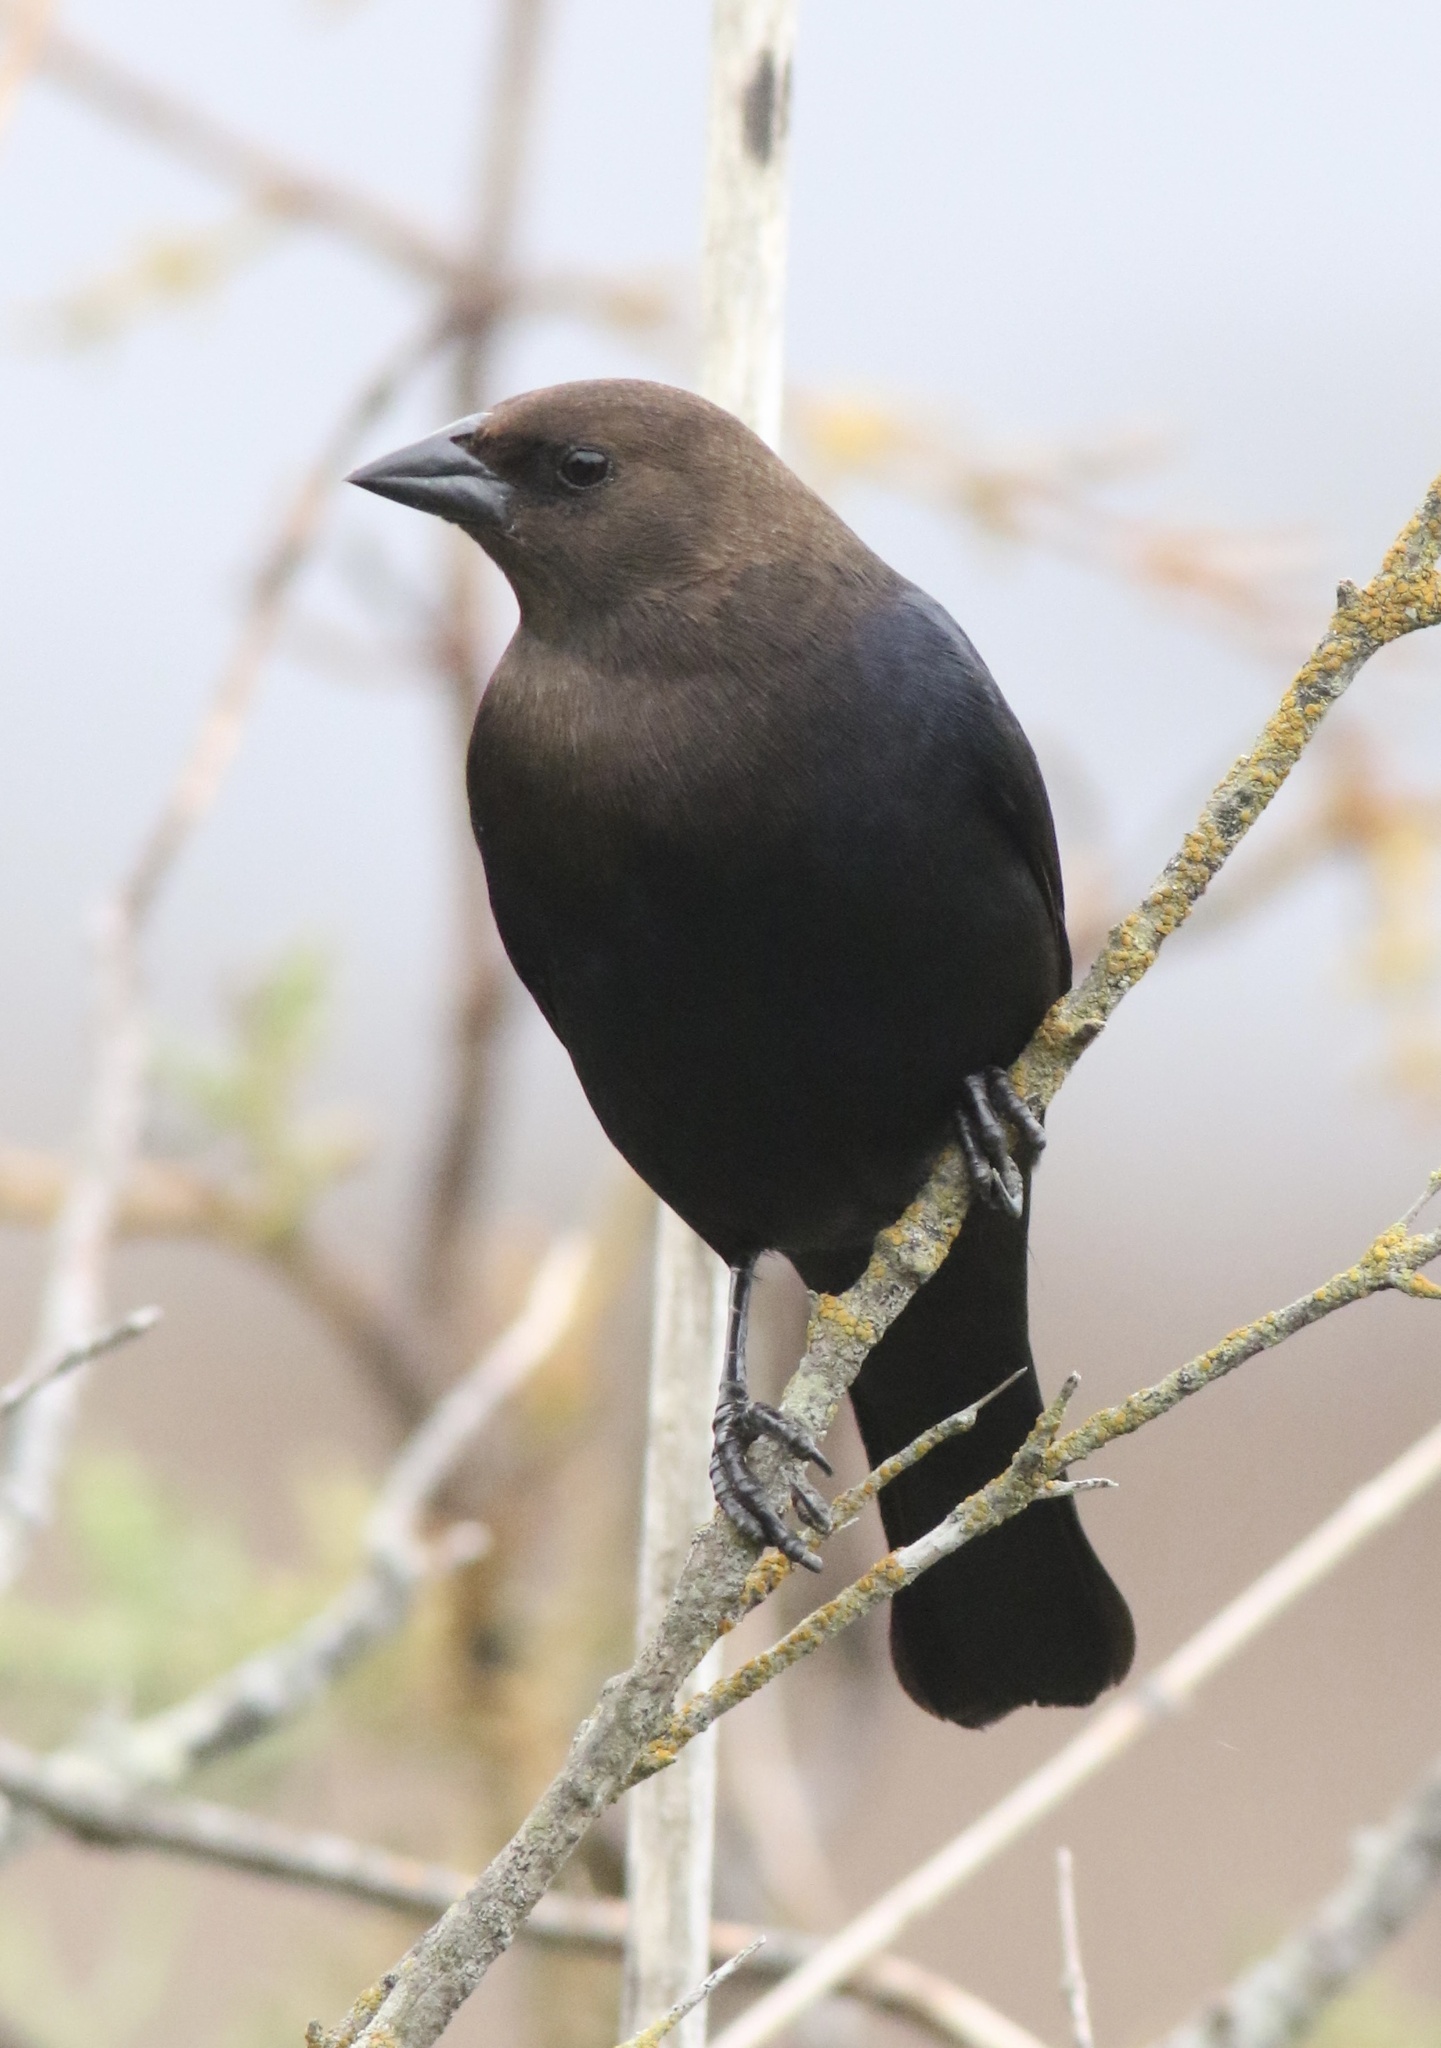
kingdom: Animalia
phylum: Chordata
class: Aves
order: Passeriformes
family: Icteridae
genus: Molothrus
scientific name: Molothrus ater
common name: Brown-headed cowbird
